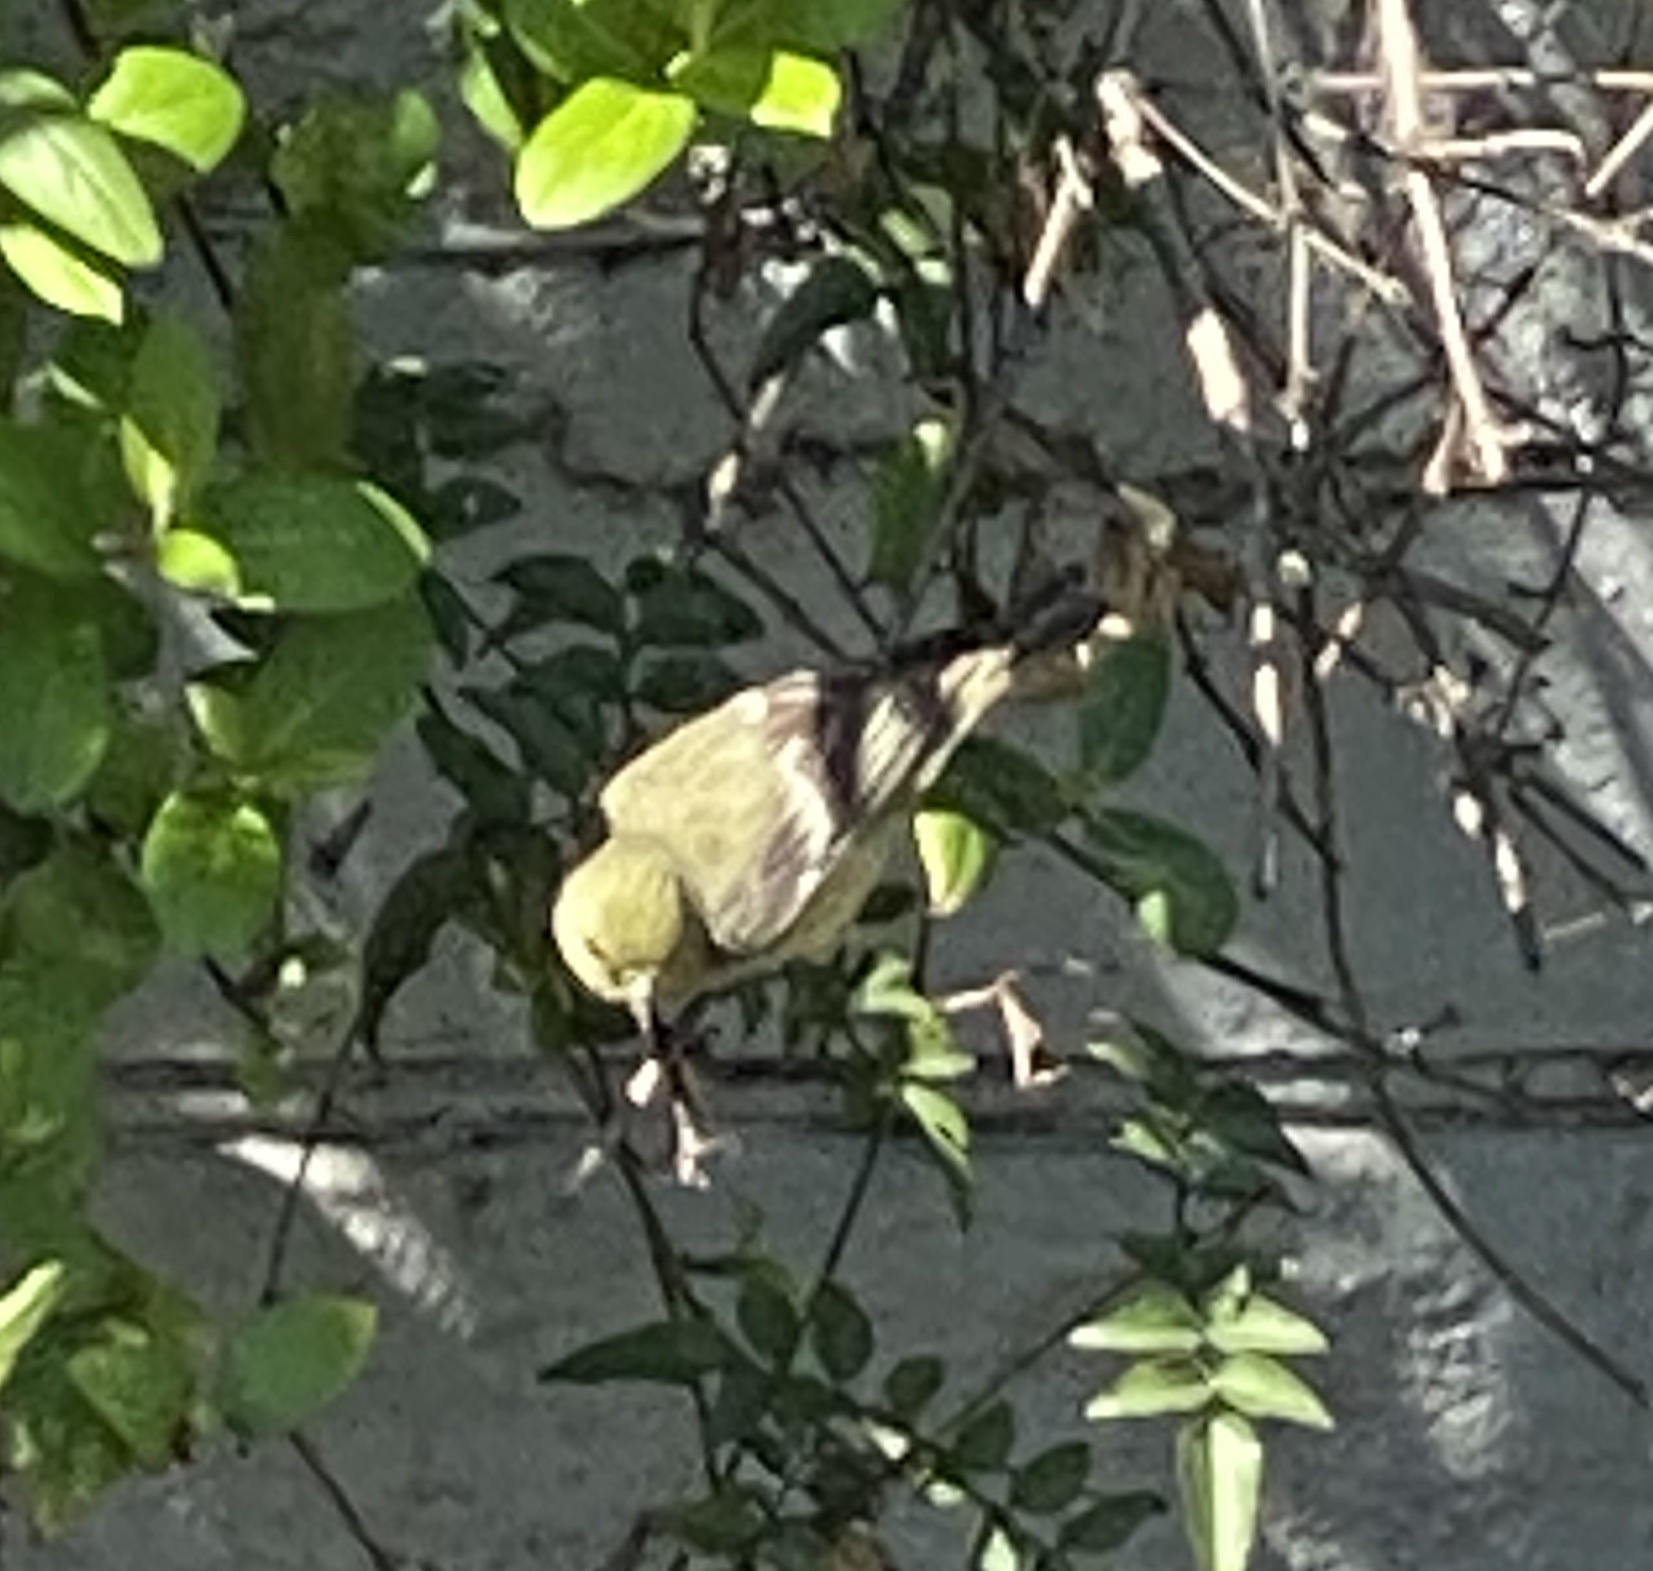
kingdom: Animalia
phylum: Chordata
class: Aves
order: Passeriformes
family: Fringillidae
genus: Spinus
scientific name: Spinus psaltria
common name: Lesser goldfinch
